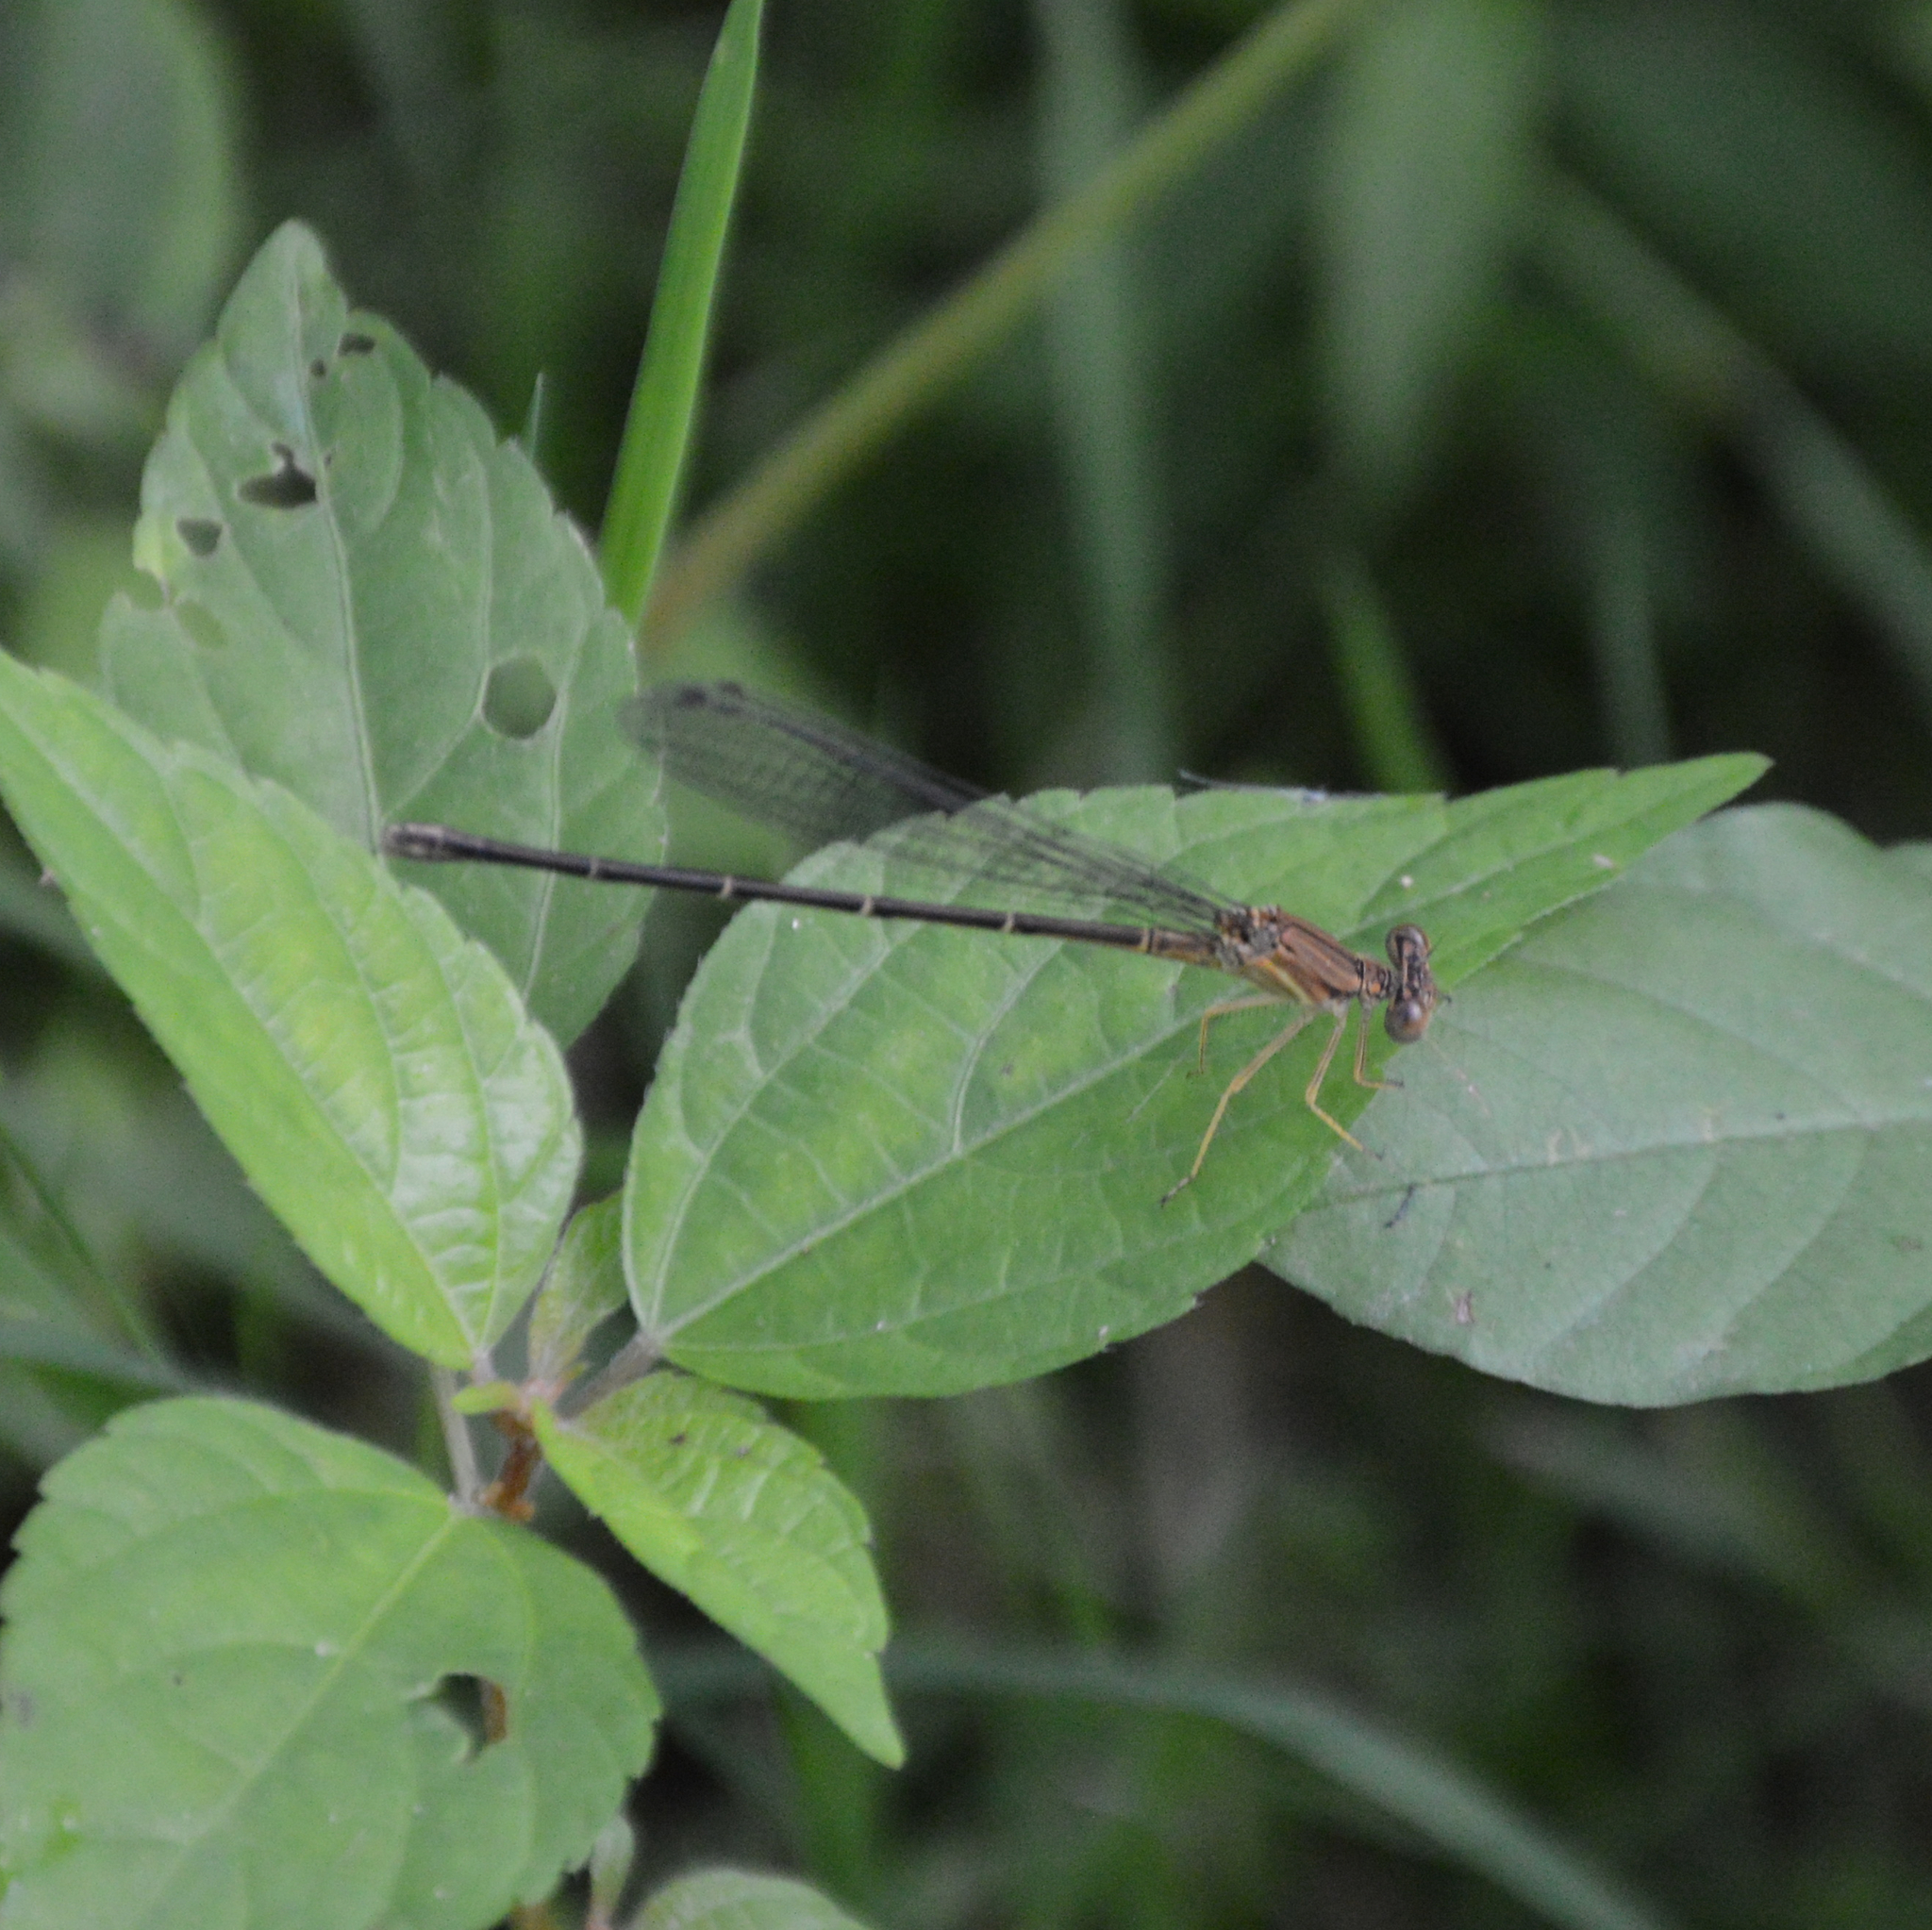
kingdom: Animalia
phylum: Arthropoda
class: Insecta
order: Odonata
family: Coenagrionidae
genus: Argia
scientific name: Argia apicalis
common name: Blue-fronted dancer
